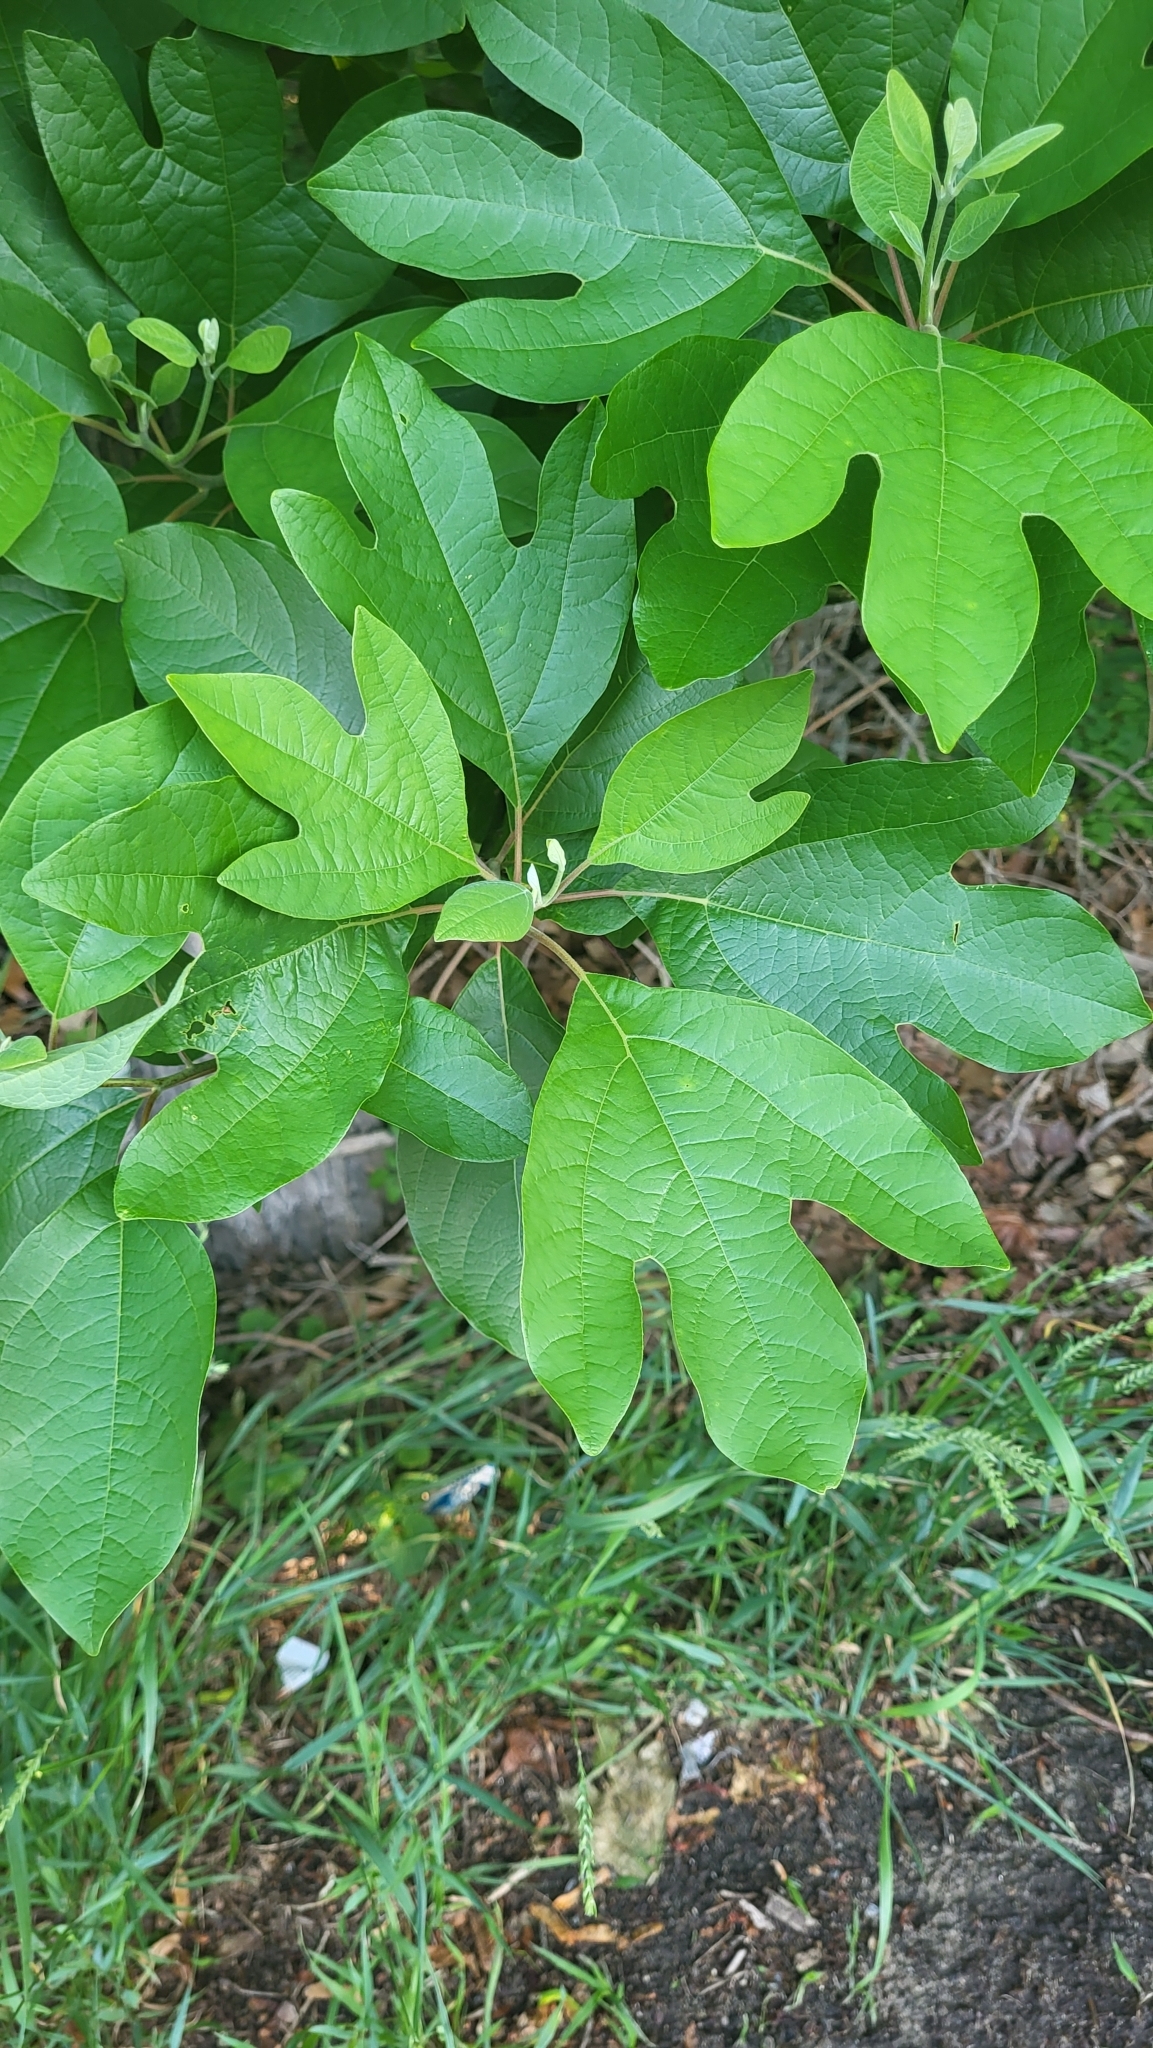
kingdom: Plantae
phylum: Tracheophyta
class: Magnoliopsida
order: Laurales
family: Lauraceae
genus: Sassafras
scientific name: Sassafras albidum
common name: Sassafras
